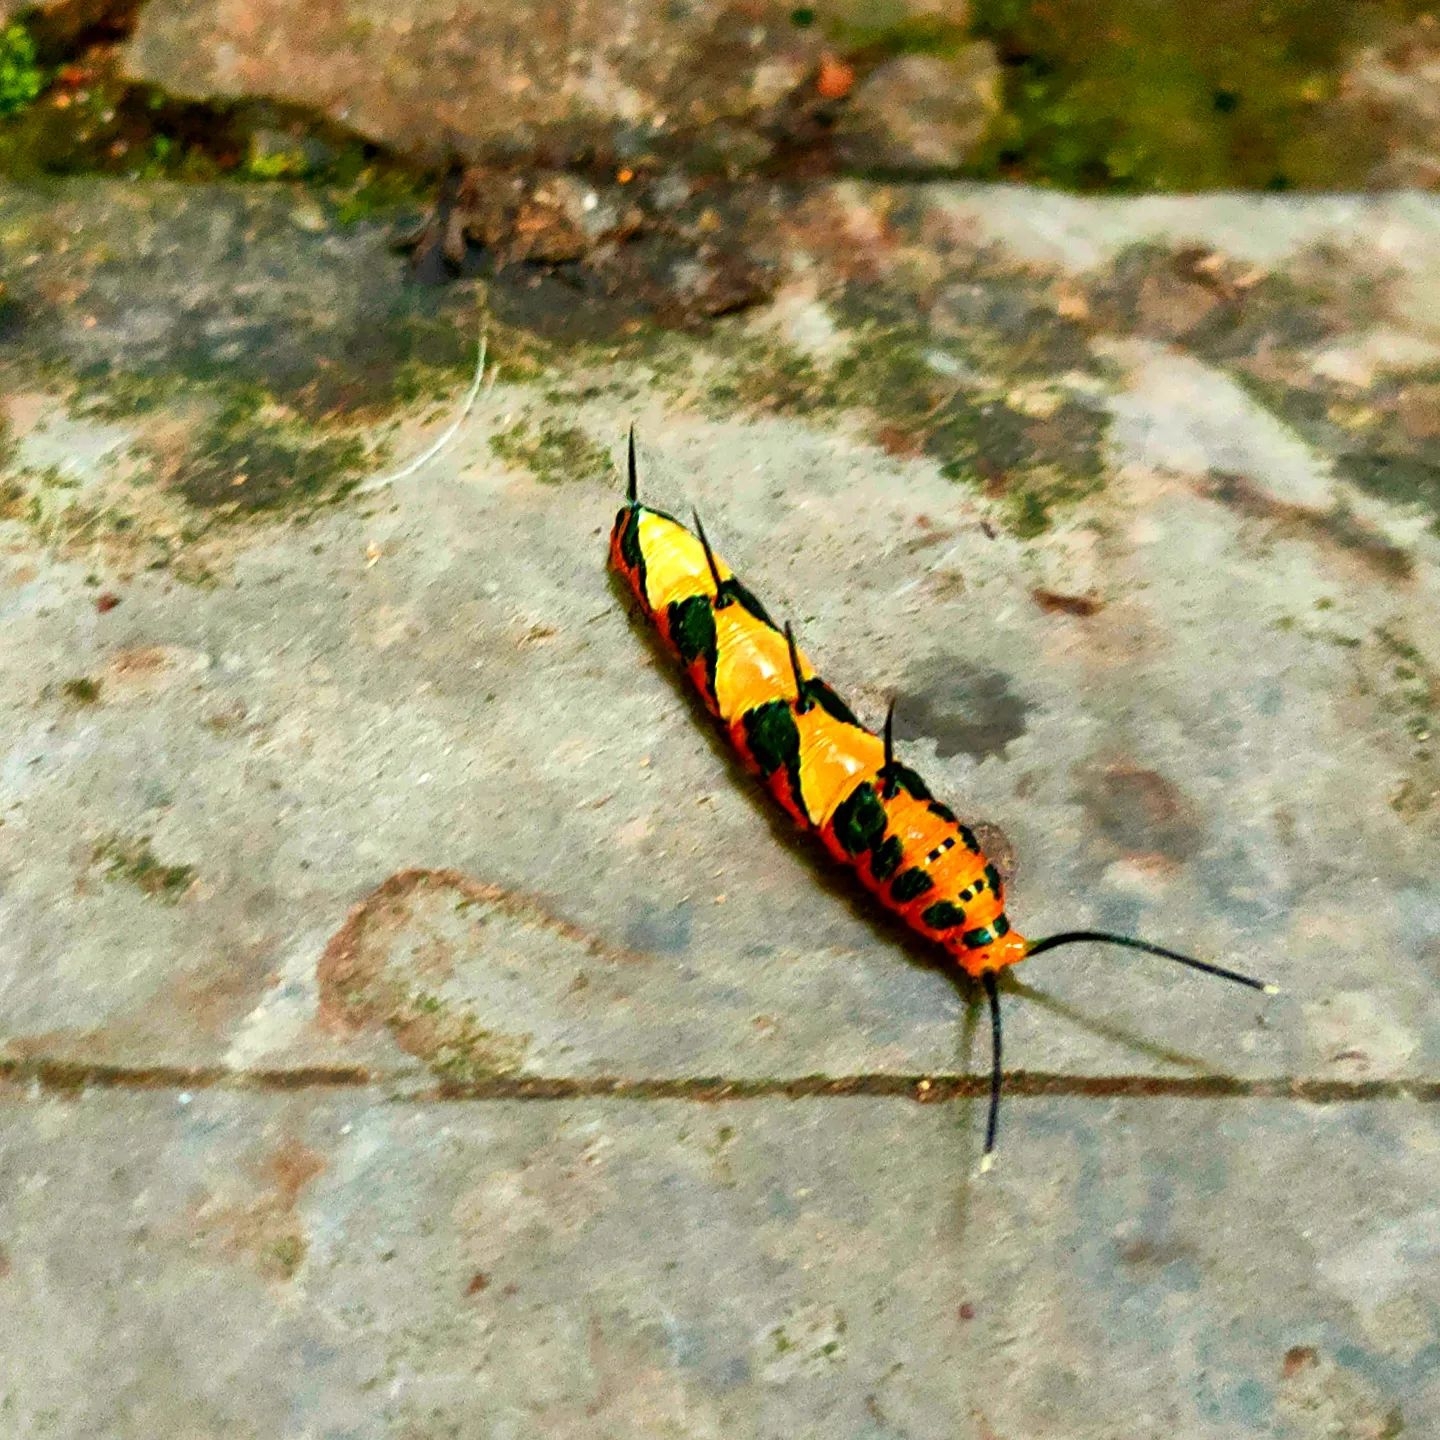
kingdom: Animalia
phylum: Arthropoda
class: Insecta
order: Lepidoptera
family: Nymphalidae
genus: Marpesia
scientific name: Marpesia petreus
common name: Red dagger wing
